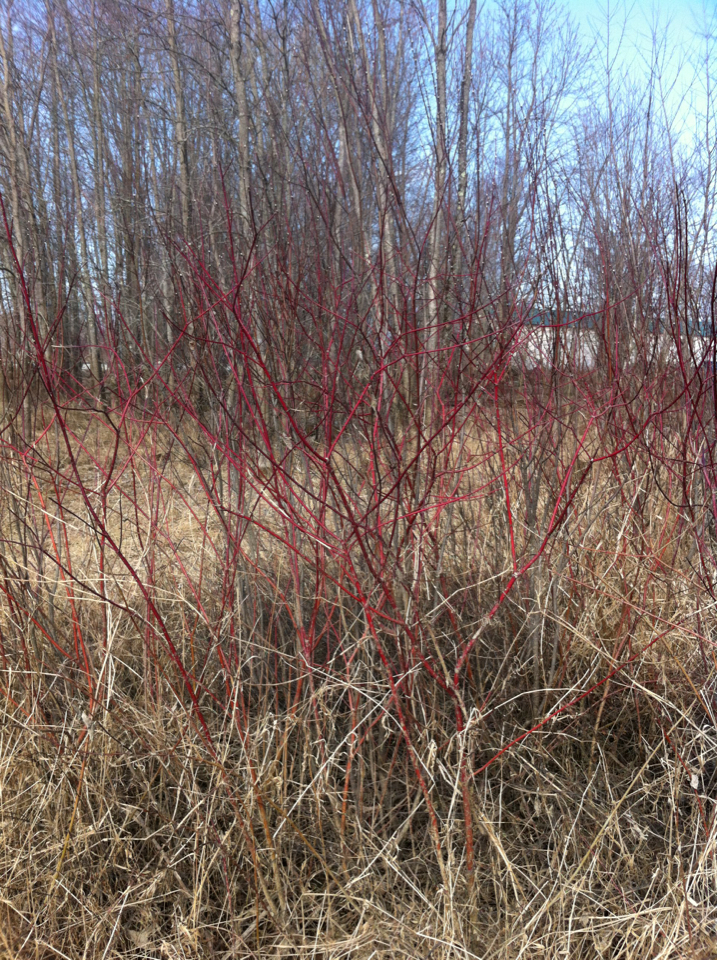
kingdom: Plantae
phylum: Tracheophyta
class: Magnoliopsida
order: Cornales
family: Cornaceae
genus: Cornus
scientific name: Cornus sericea
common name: Red-osier dogwood
